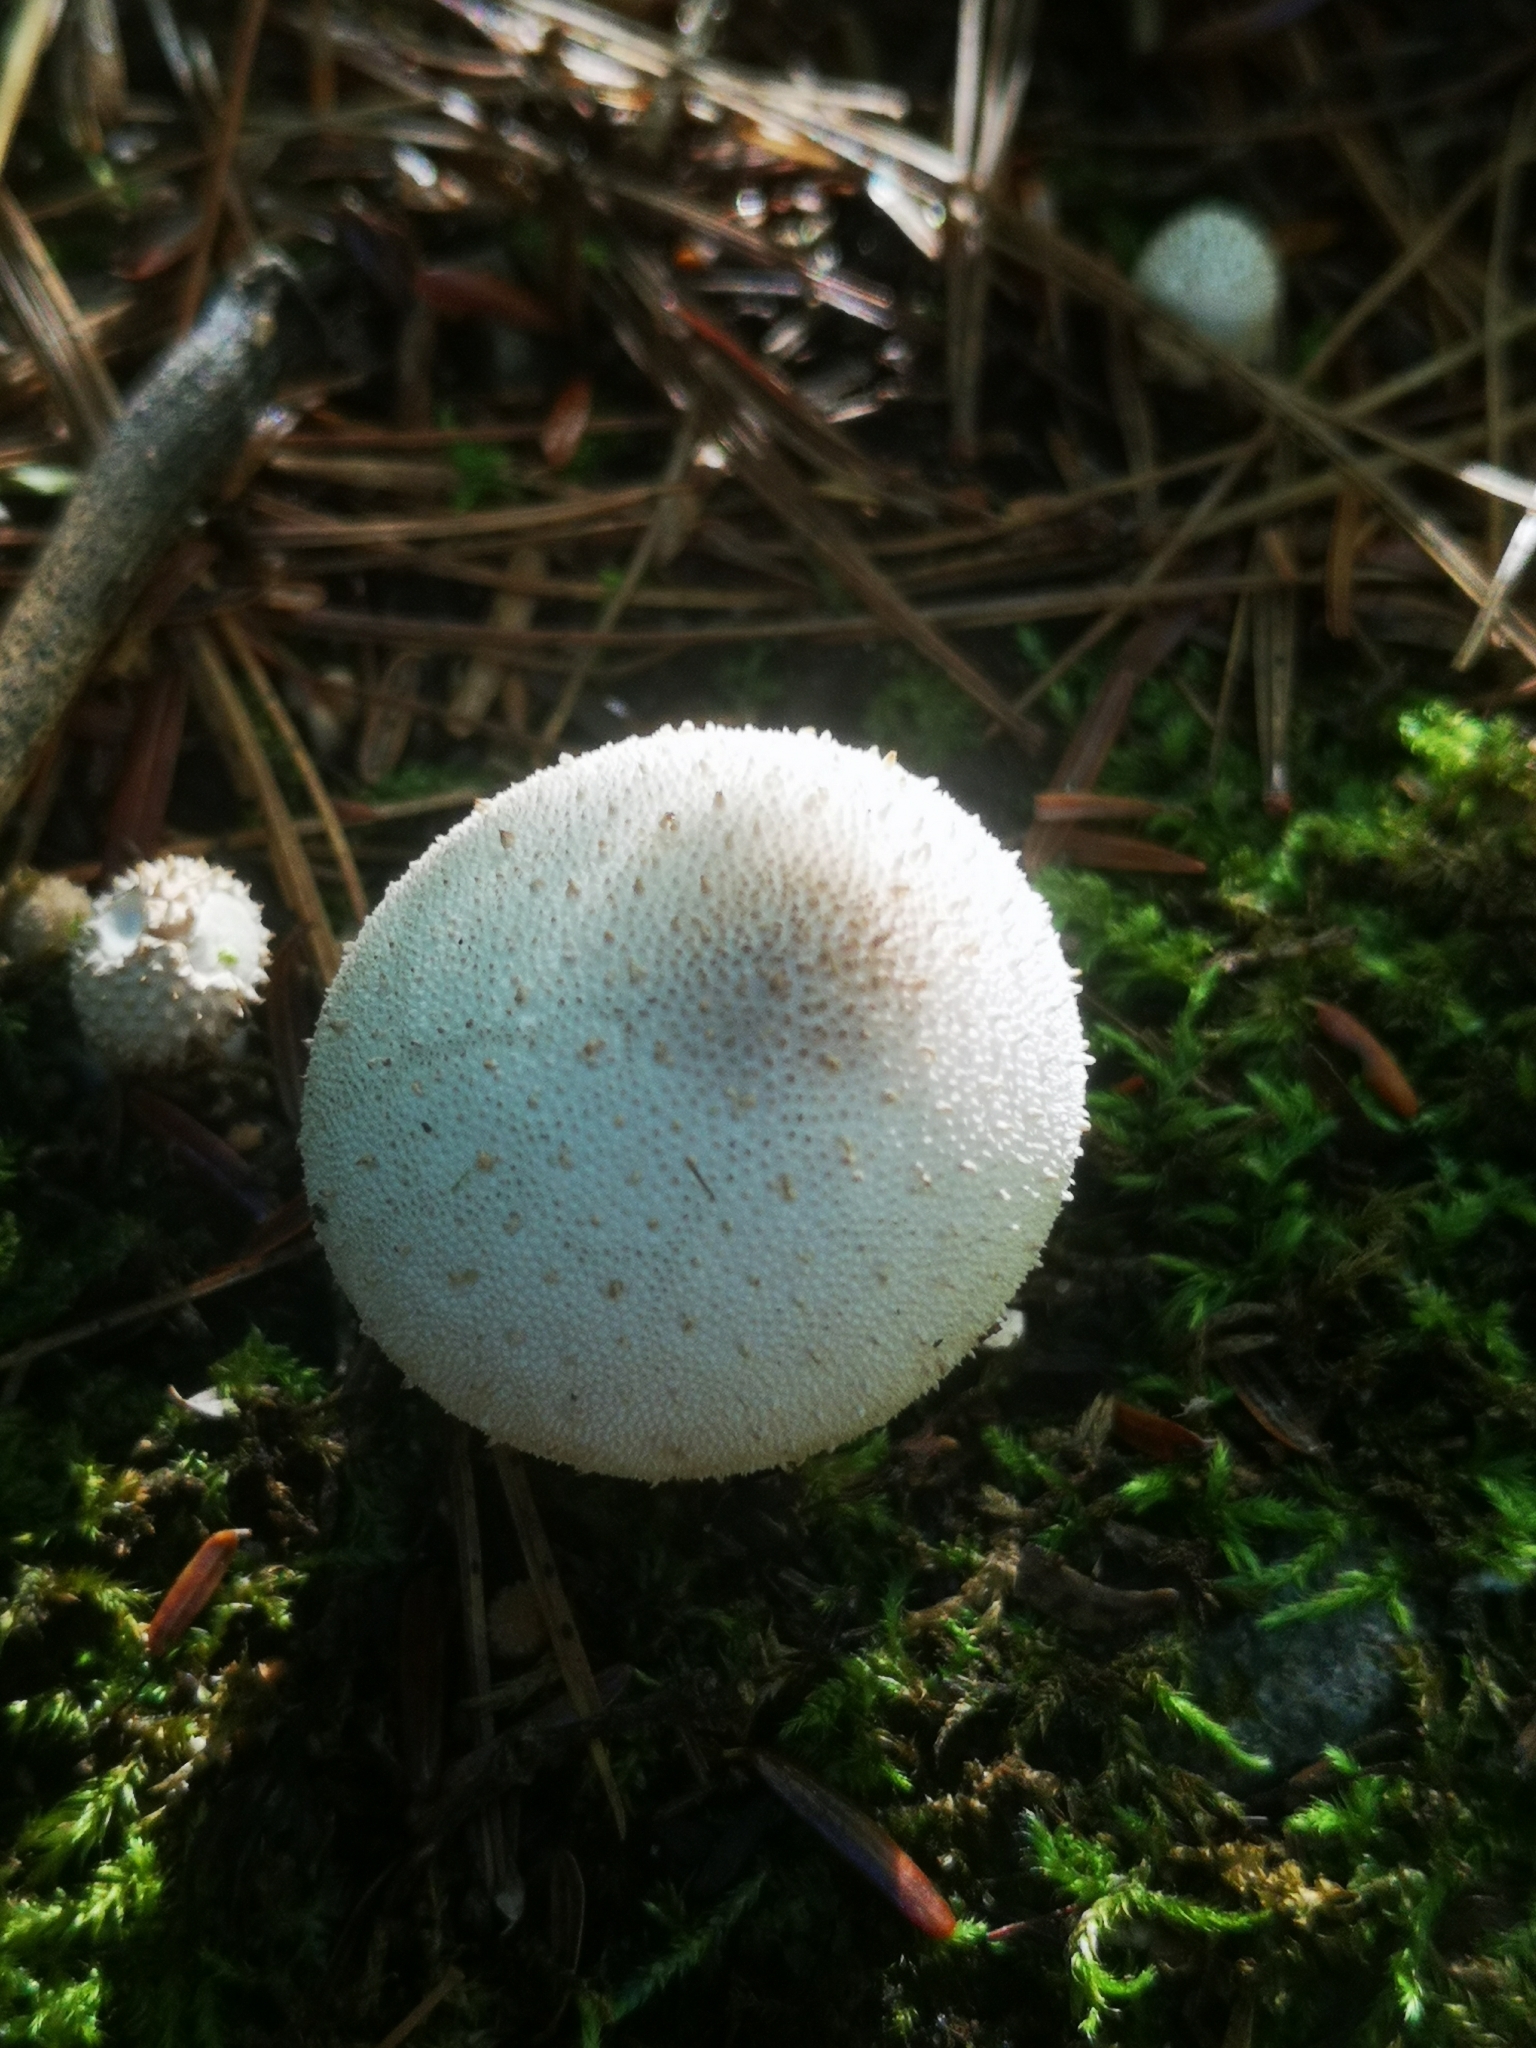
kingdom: Fungi
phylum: Basidiomycota
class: Agaricomycetes
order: Agaricales
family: Lycoperdaceae
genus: Lycoperdon
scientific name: Lycoperdon perlatum
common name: Common puffball
